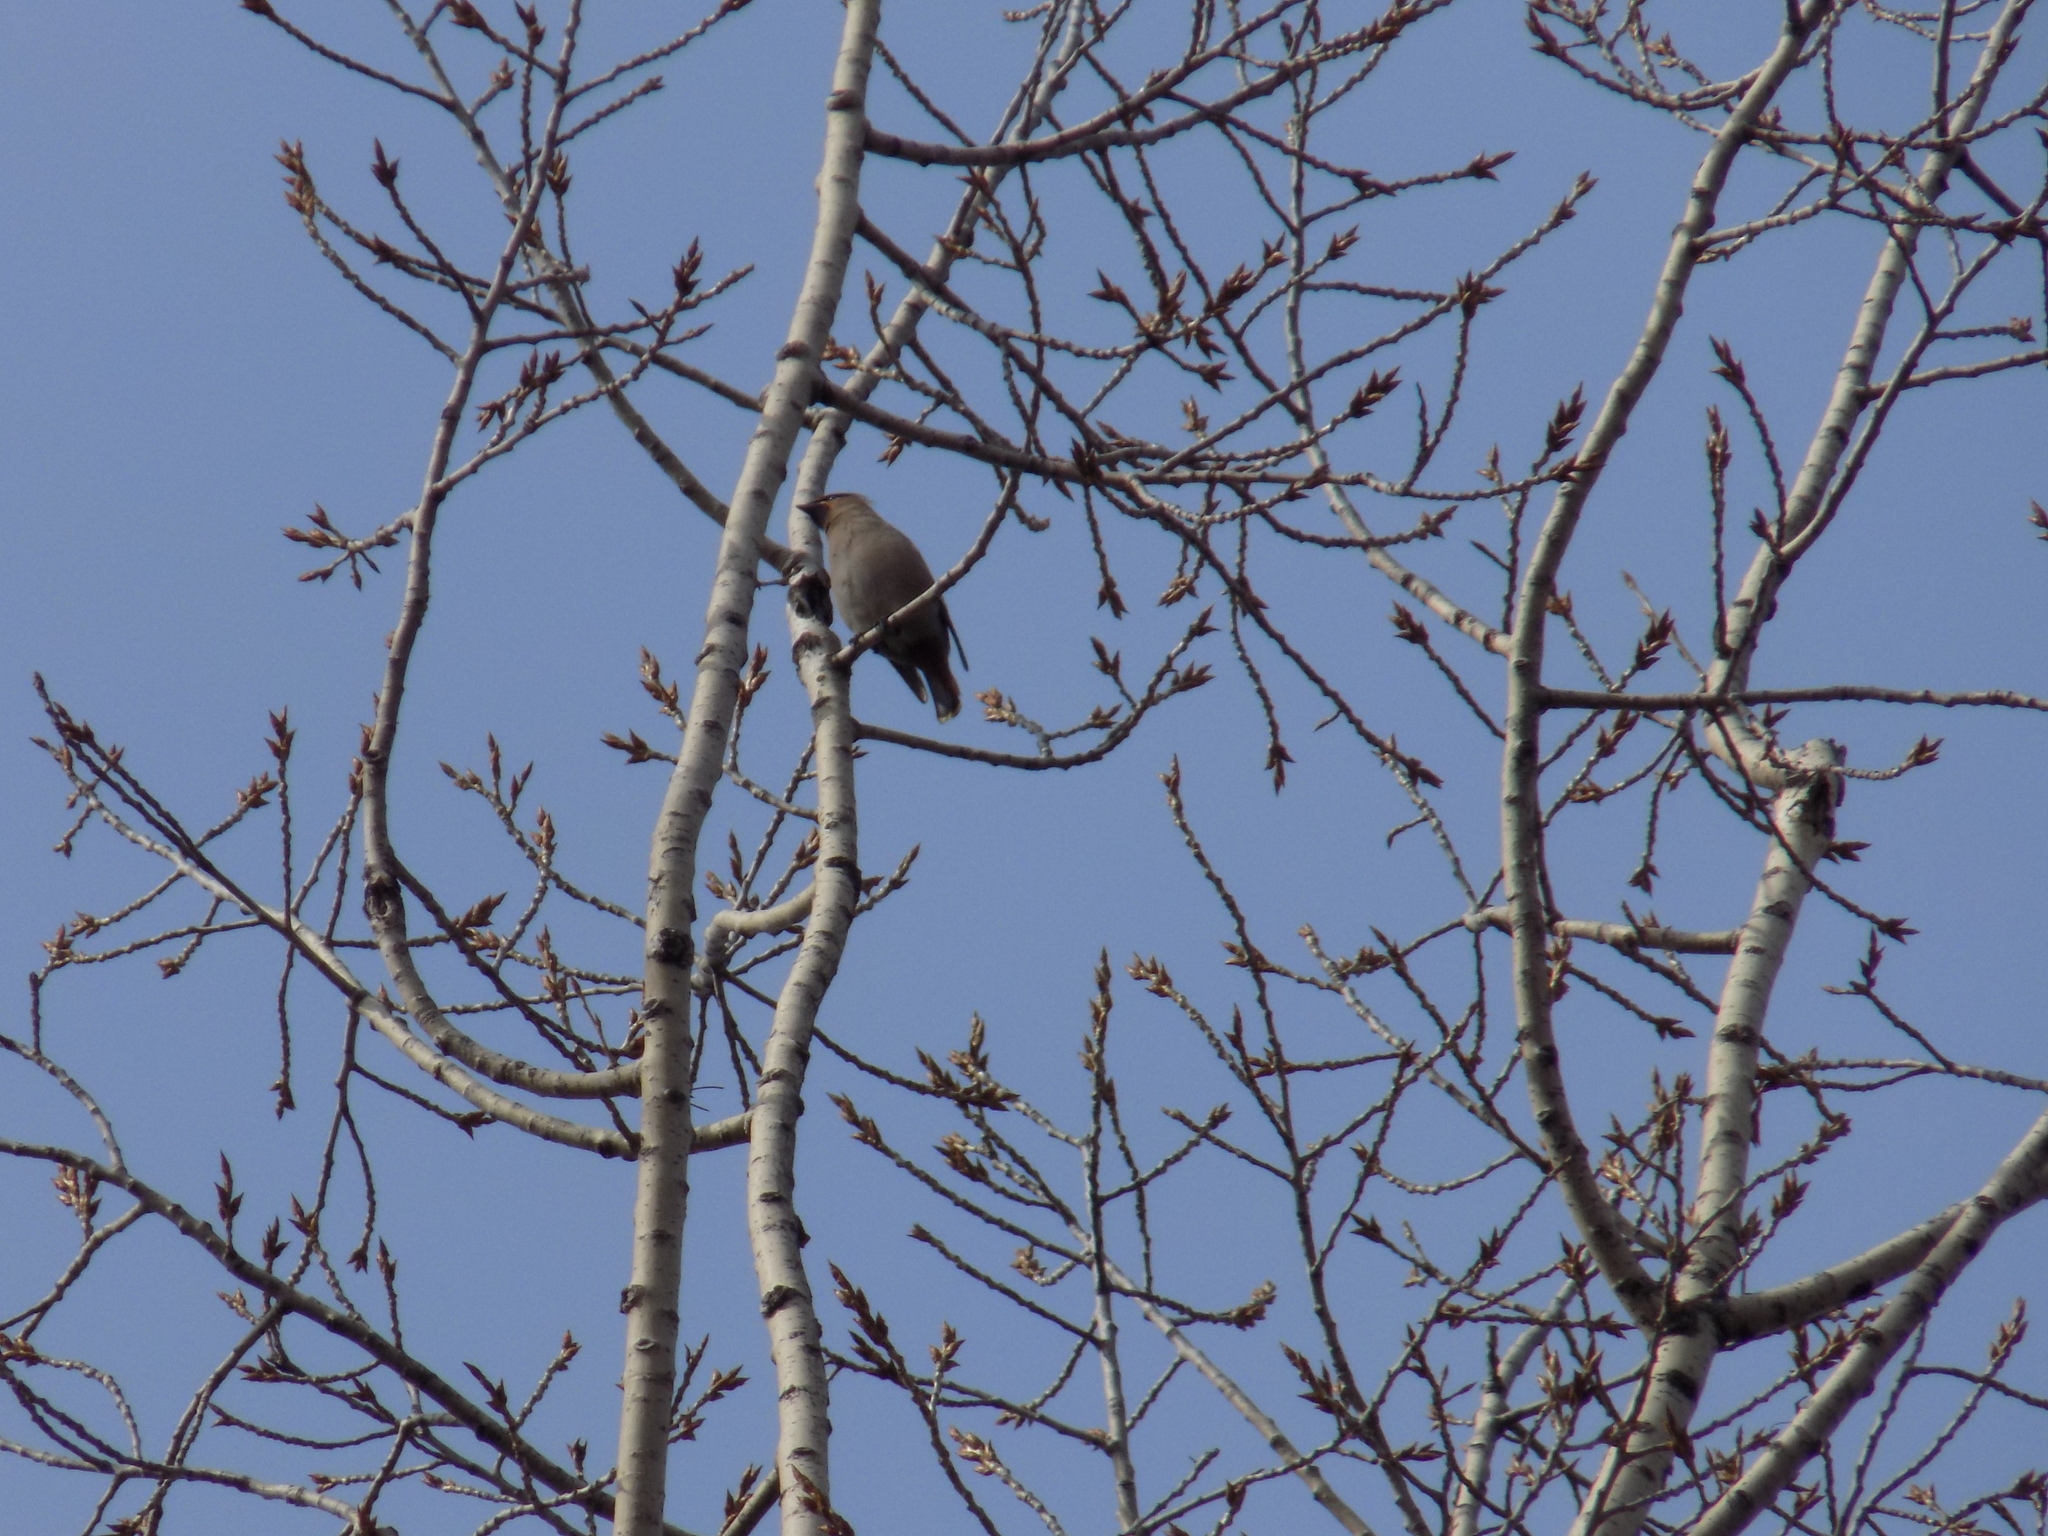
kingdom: Animalia
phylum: Chordata
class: Aves
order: Passeriformes
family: Bombycillidae
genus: Bombycilla
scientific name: Bombycilla garrulus
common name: Bohemian waxwing
